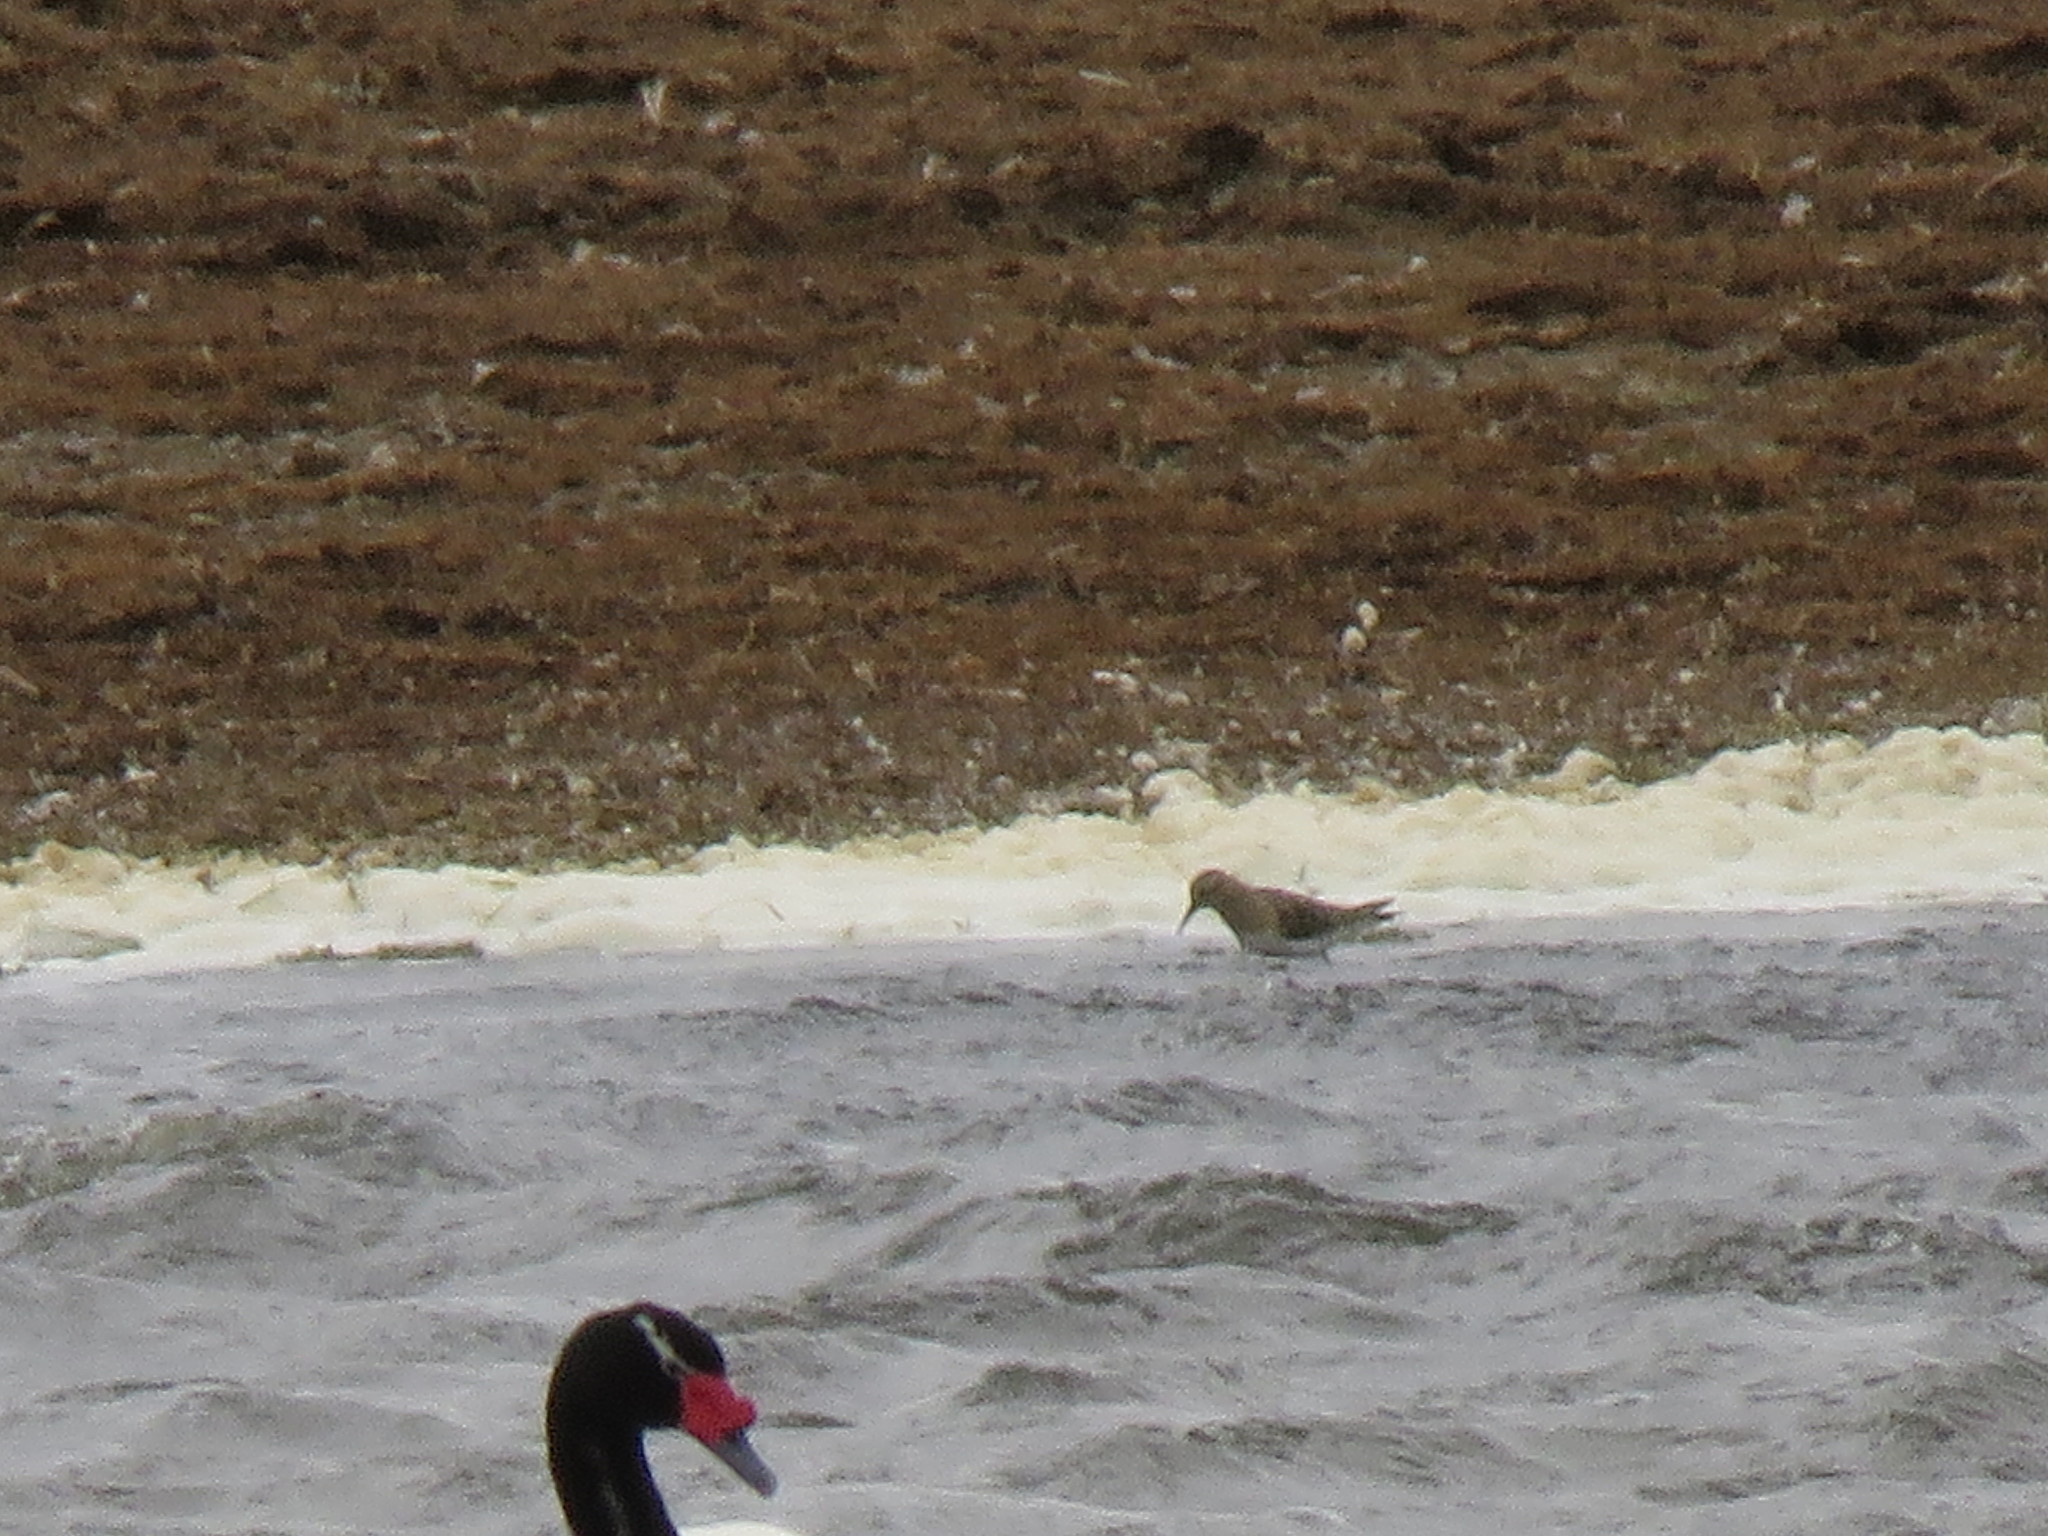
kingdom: Animalia
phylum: Chordata
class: Aves
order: Charadriiformes
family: Scolopacidae
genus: Calidris
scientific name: Calidris bairdii
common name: Baird's sandpiper
